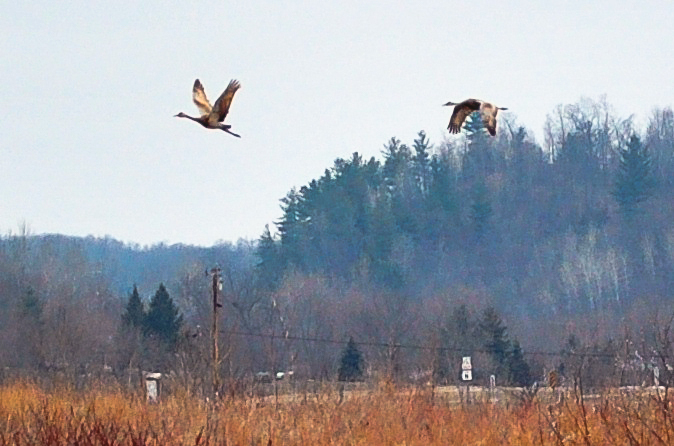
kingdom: Animalia
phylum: Chordata
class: Aves
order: Gruiformes
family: Gruidae
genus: Grus
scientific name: Grus canadensis
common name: Sandhill crane
